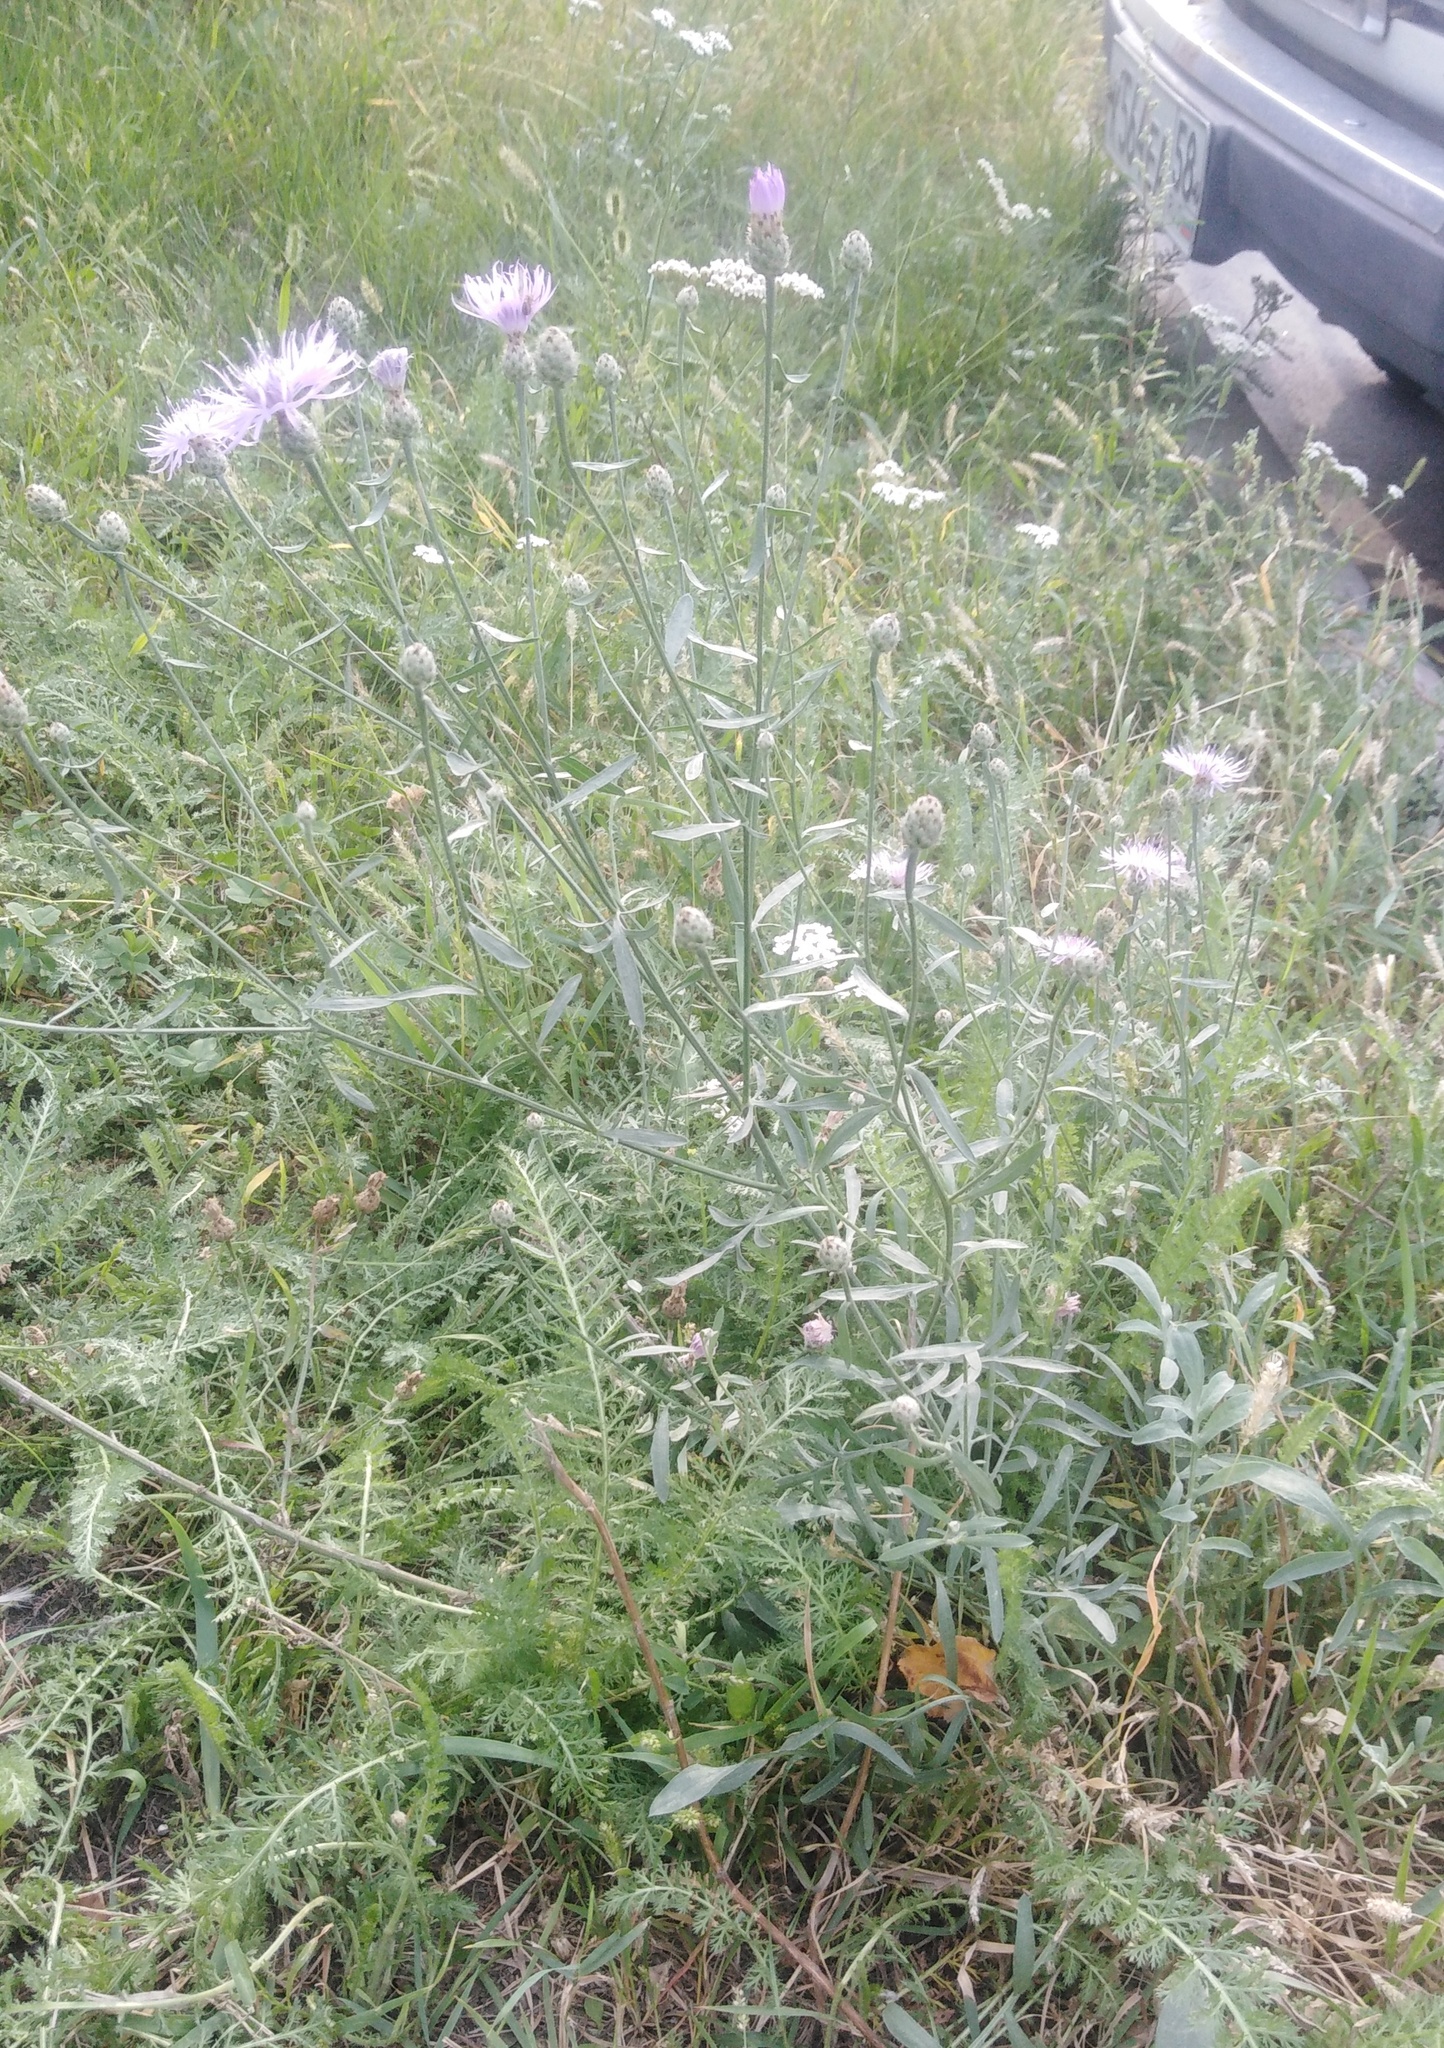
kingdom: Plantae
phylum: Tracheophyta
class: Magnoliopsida
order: Asterales
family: Asteraceae
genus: Centaurea
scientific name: Centaurea stoebe
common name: Spotted knapweed
